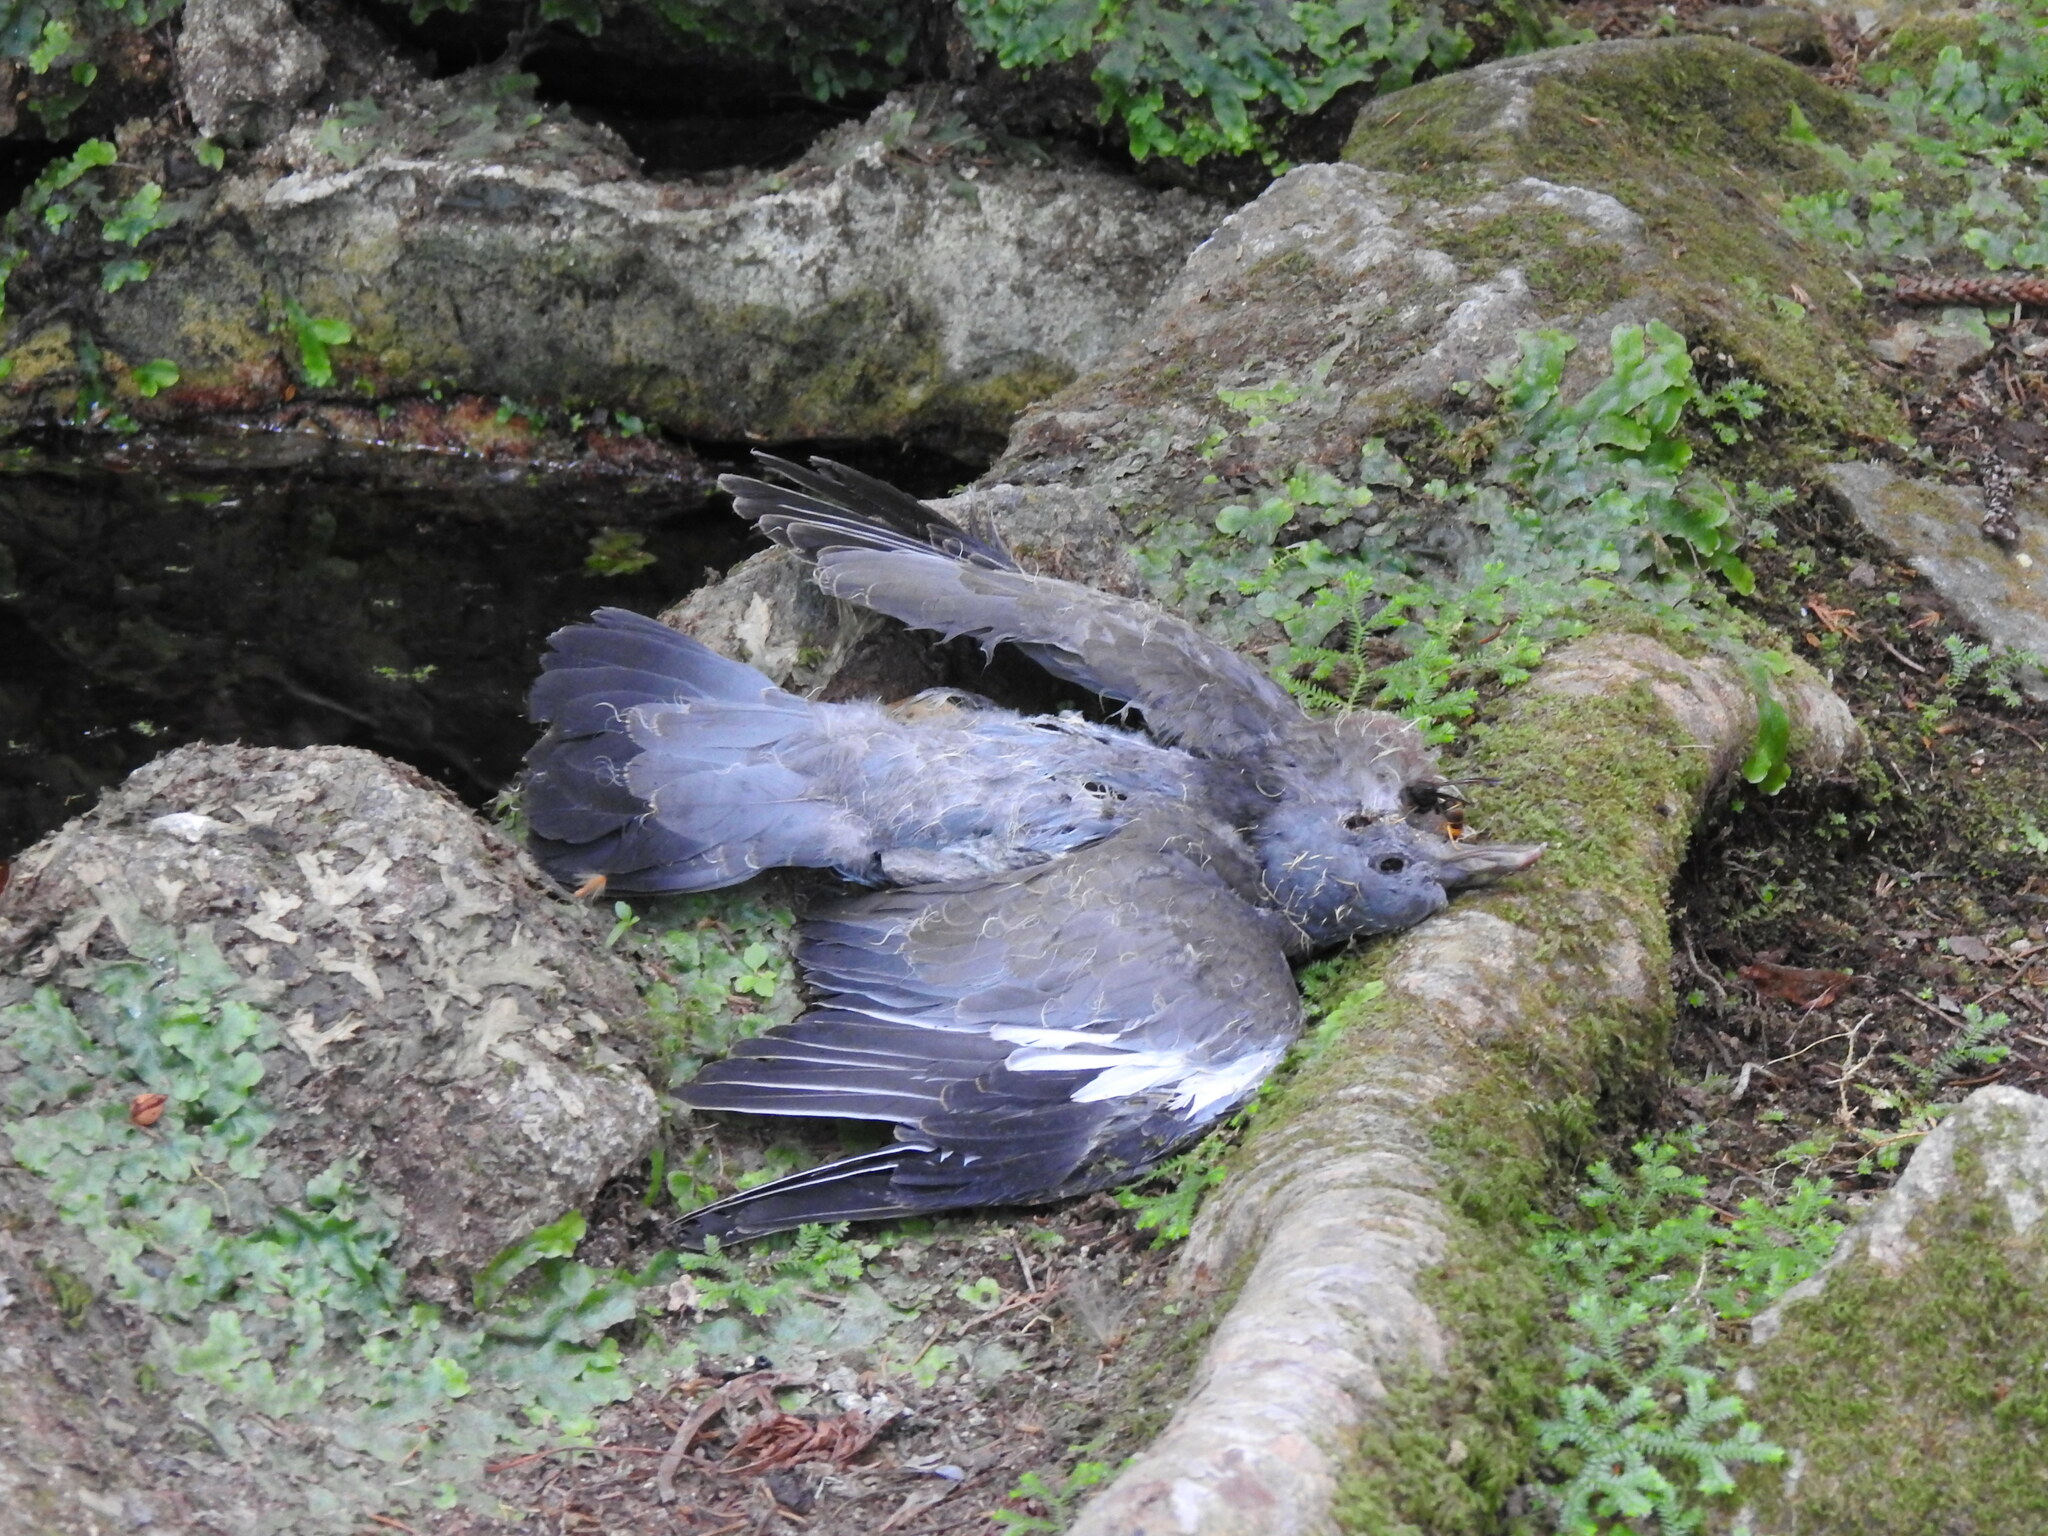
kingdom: Animalia
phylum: Chordata
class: Aves
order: Columbiformes
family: Columbidae
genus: Columba
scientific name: Columba palumbus
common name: Common wood pigeon
